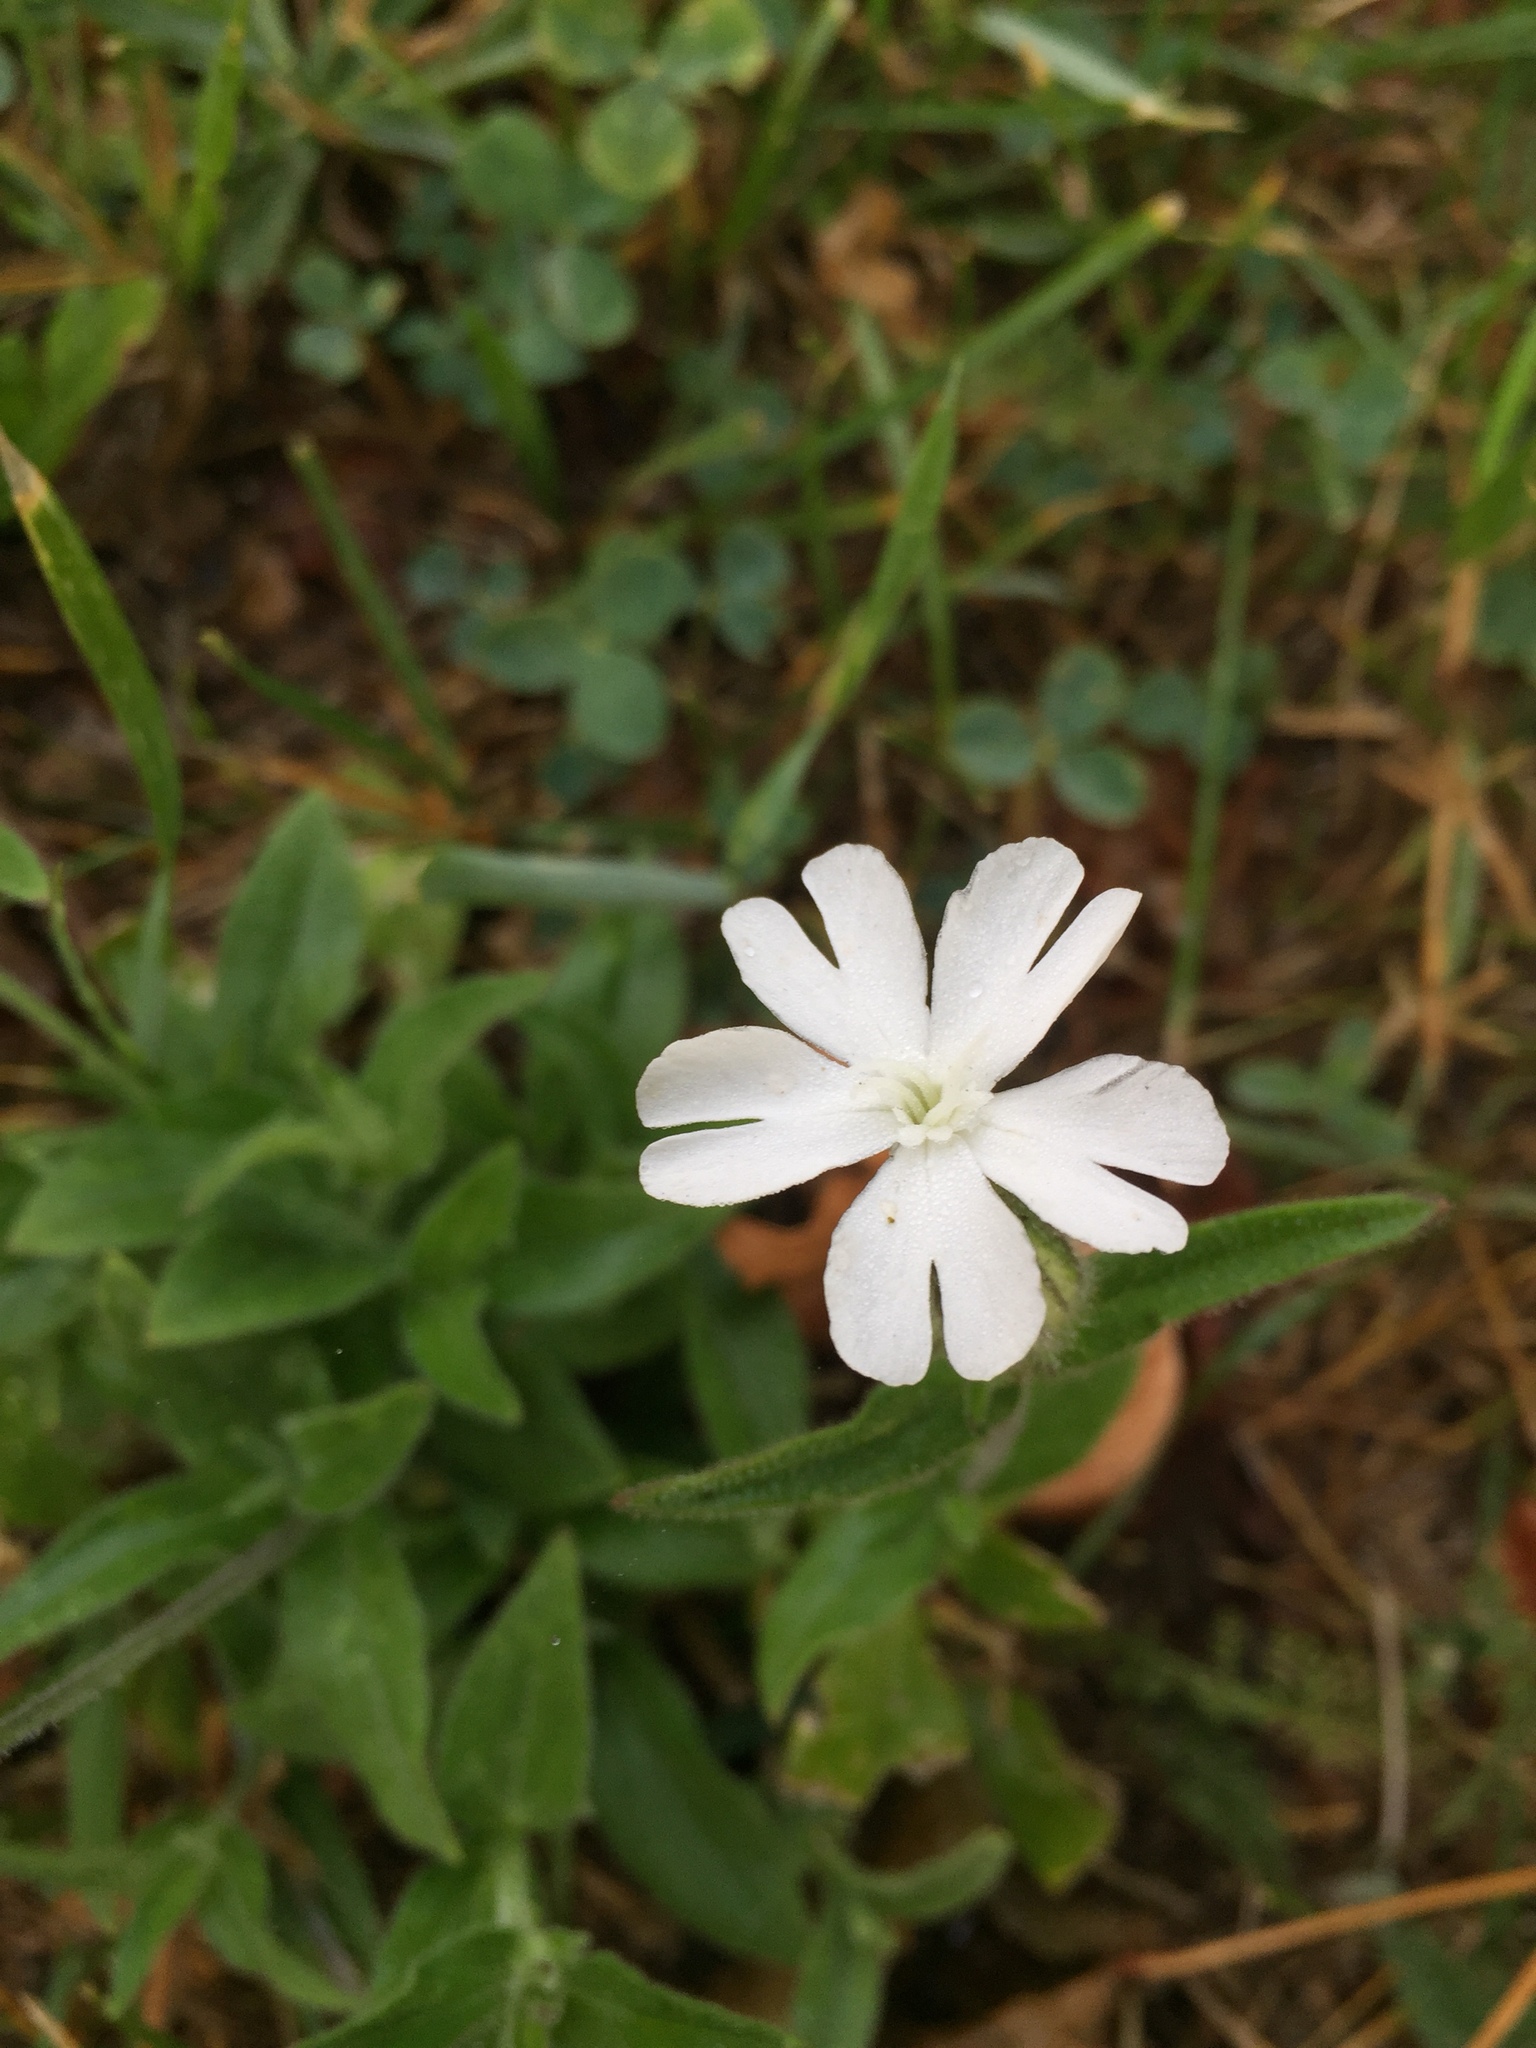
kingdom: Plantae
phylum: Tracheophyta
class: Magnoliopsida
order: Caryophyllales
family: Caryophyllaceae
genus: Silene
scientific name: Silene latifolia
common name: White campion
